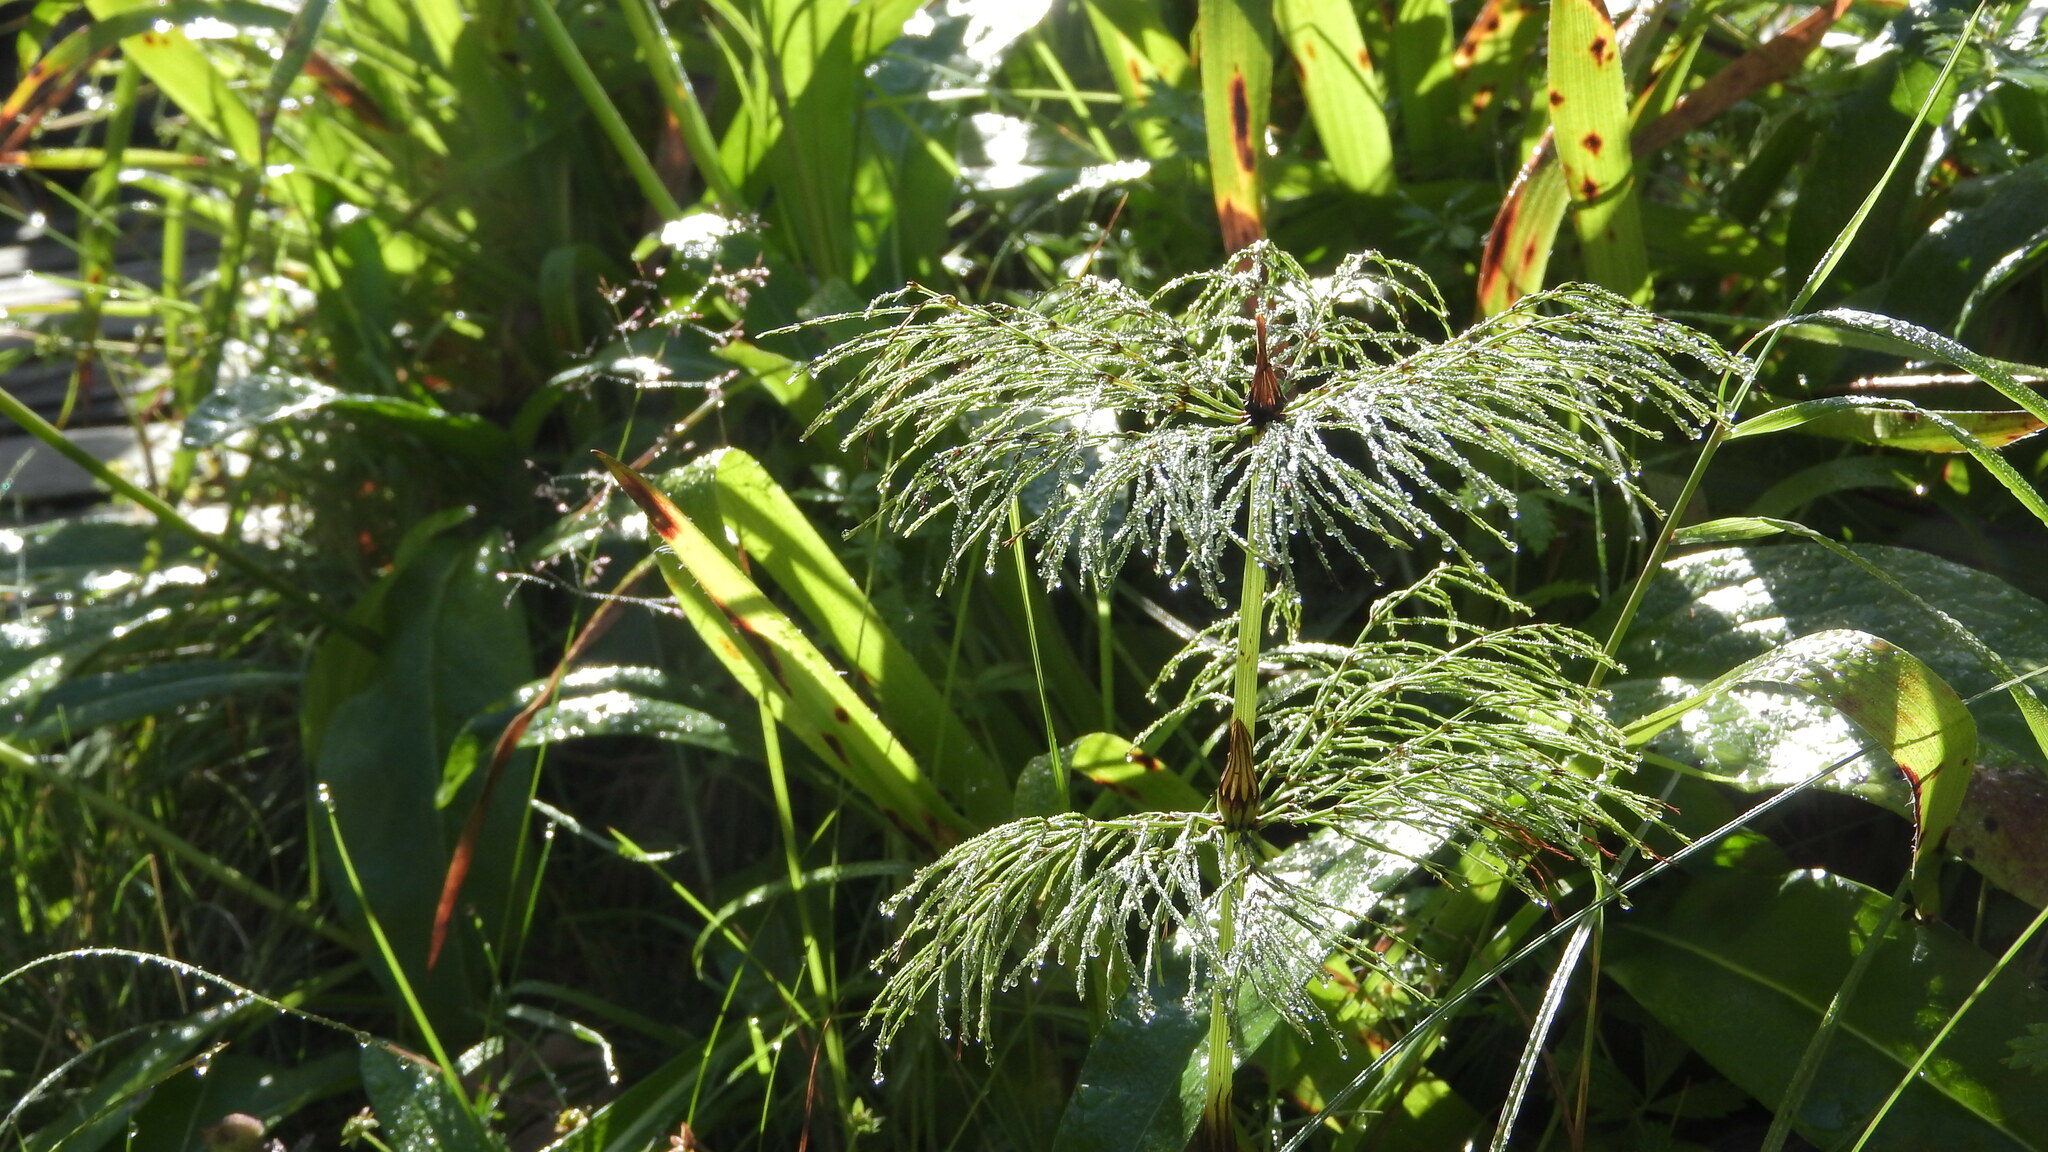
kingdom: Plantae
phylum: Tracheophyta
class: Polypodiopsida
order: Equisetales
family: Equisetaceae
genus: Equisetum
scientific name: Equisetum sylvaticum
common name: Wood horsetail
